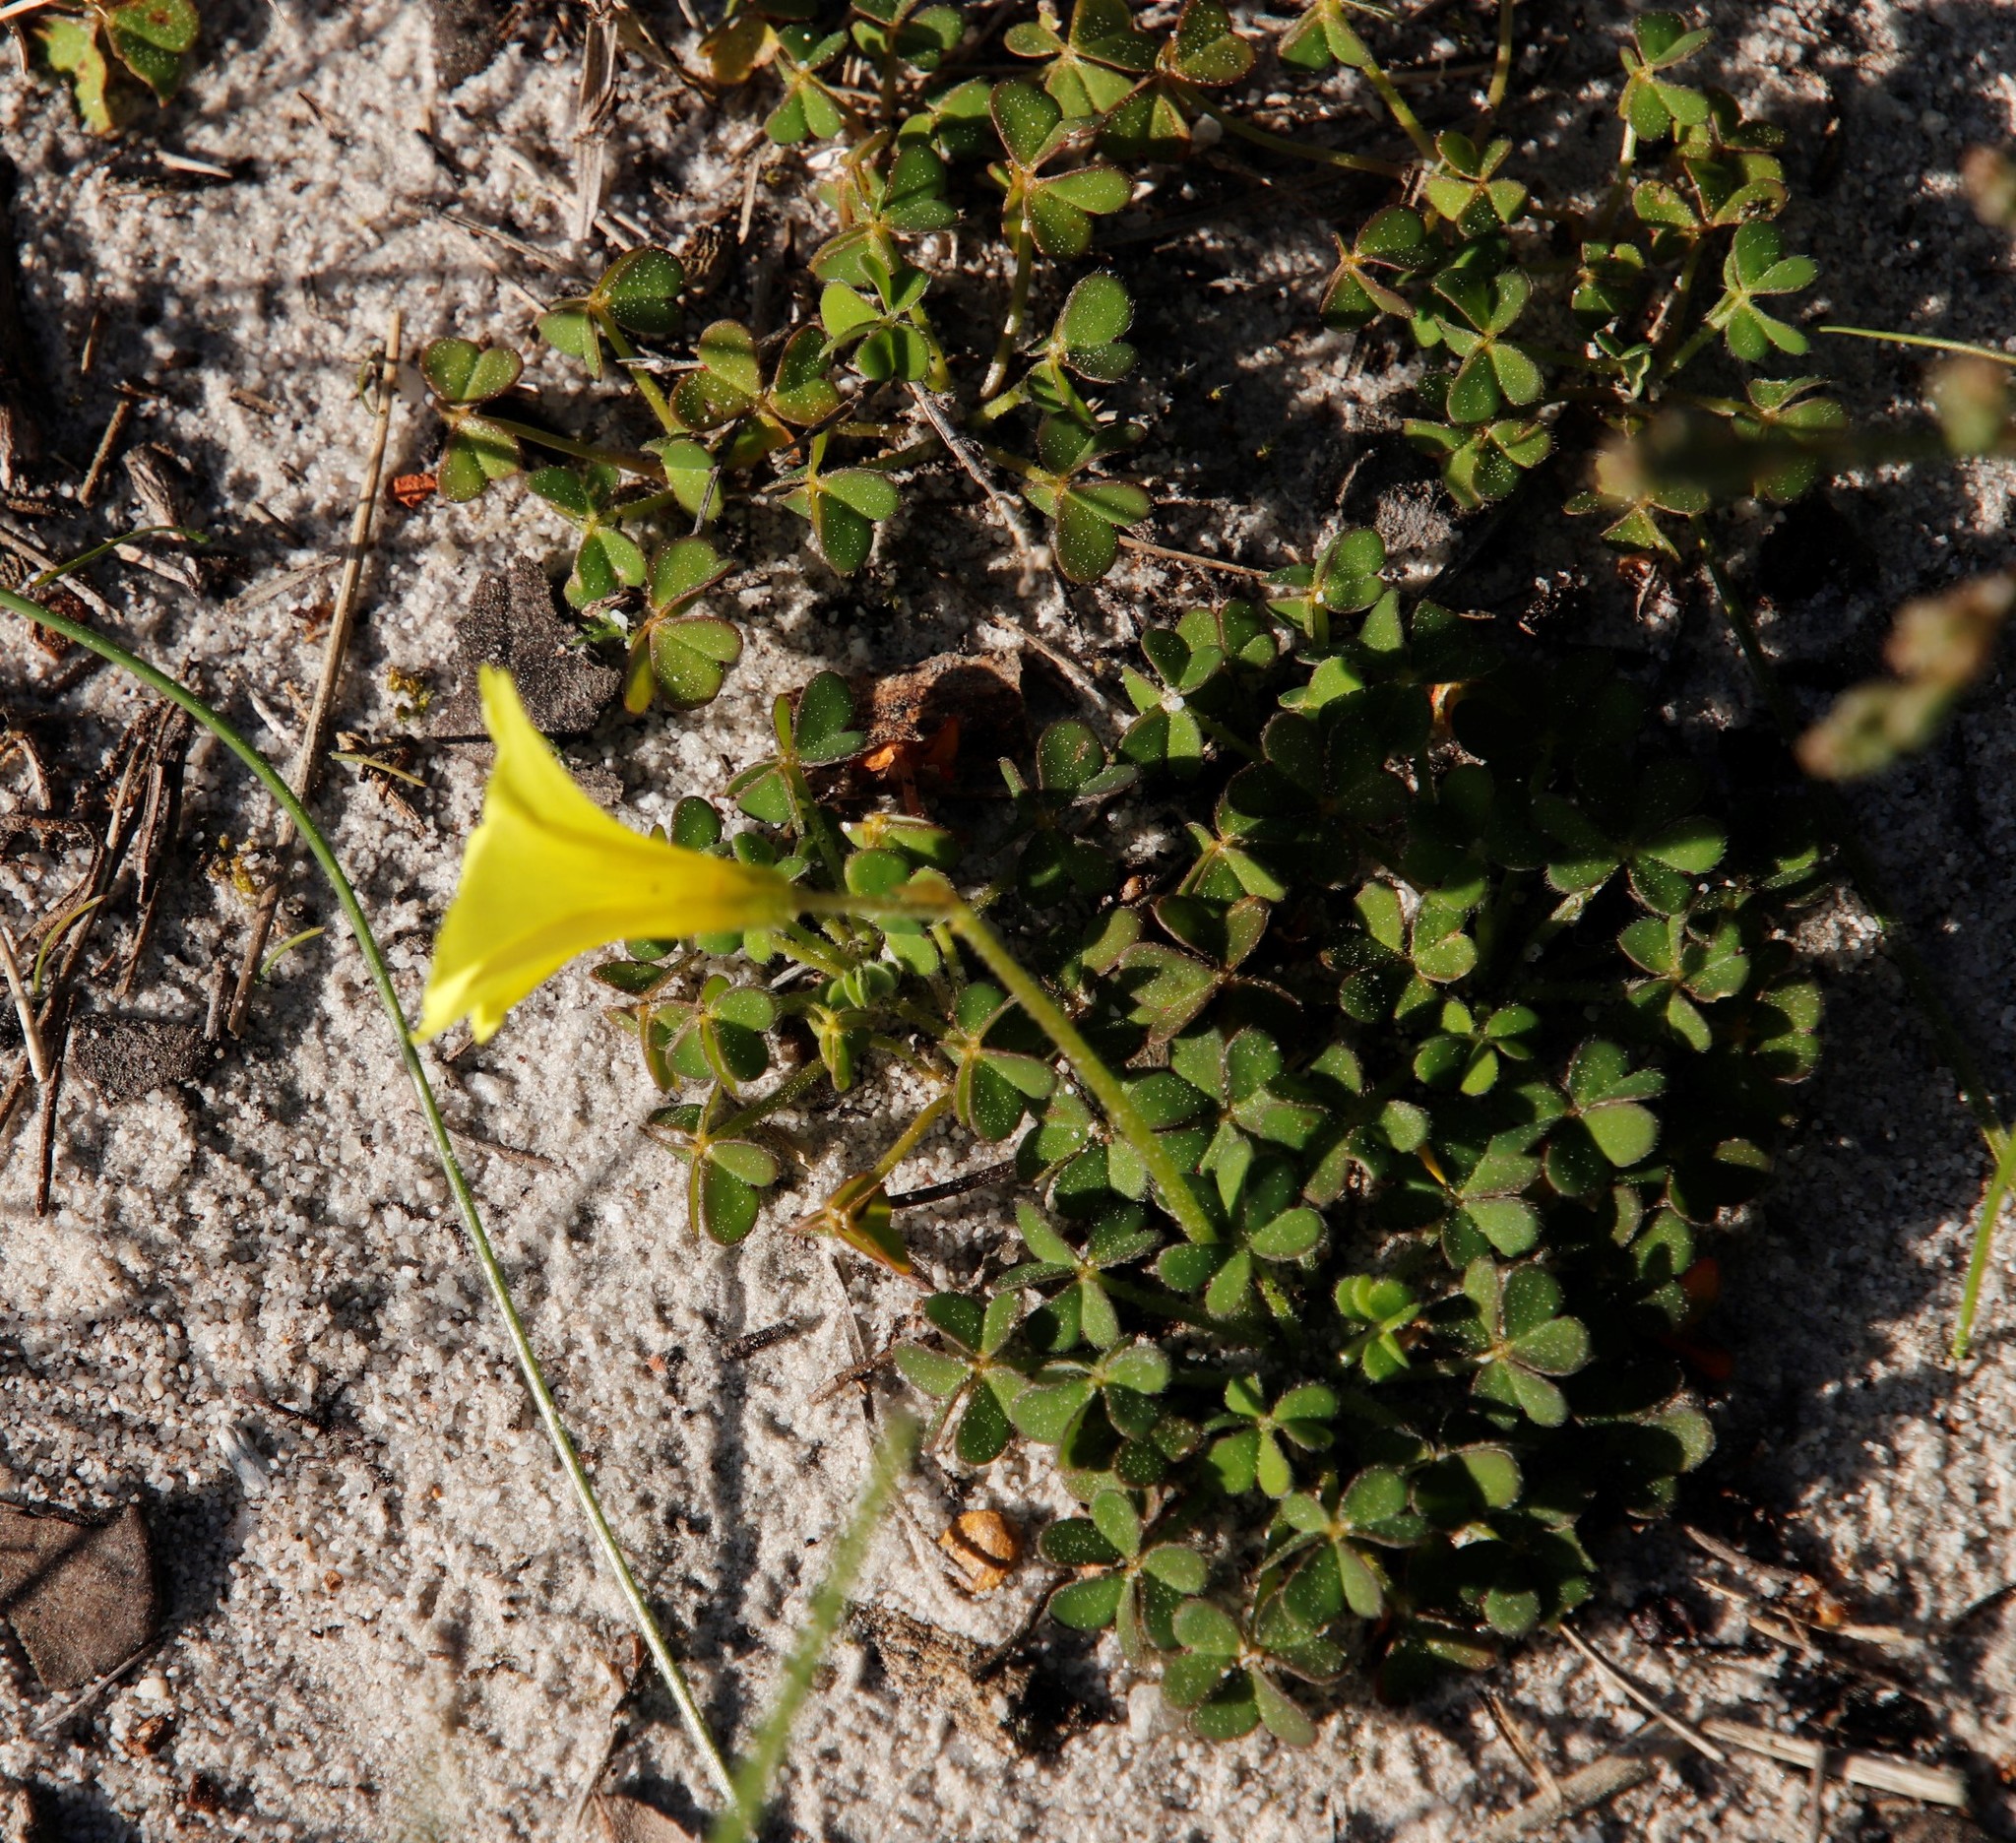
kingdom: Plantae
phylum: Tracheophyta
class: Magnoliopsida
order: Oxalidales
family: Oxalidaceae
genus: Oxalis
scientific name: Oxalis pes-caprae
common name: Bermuda-buttercup
